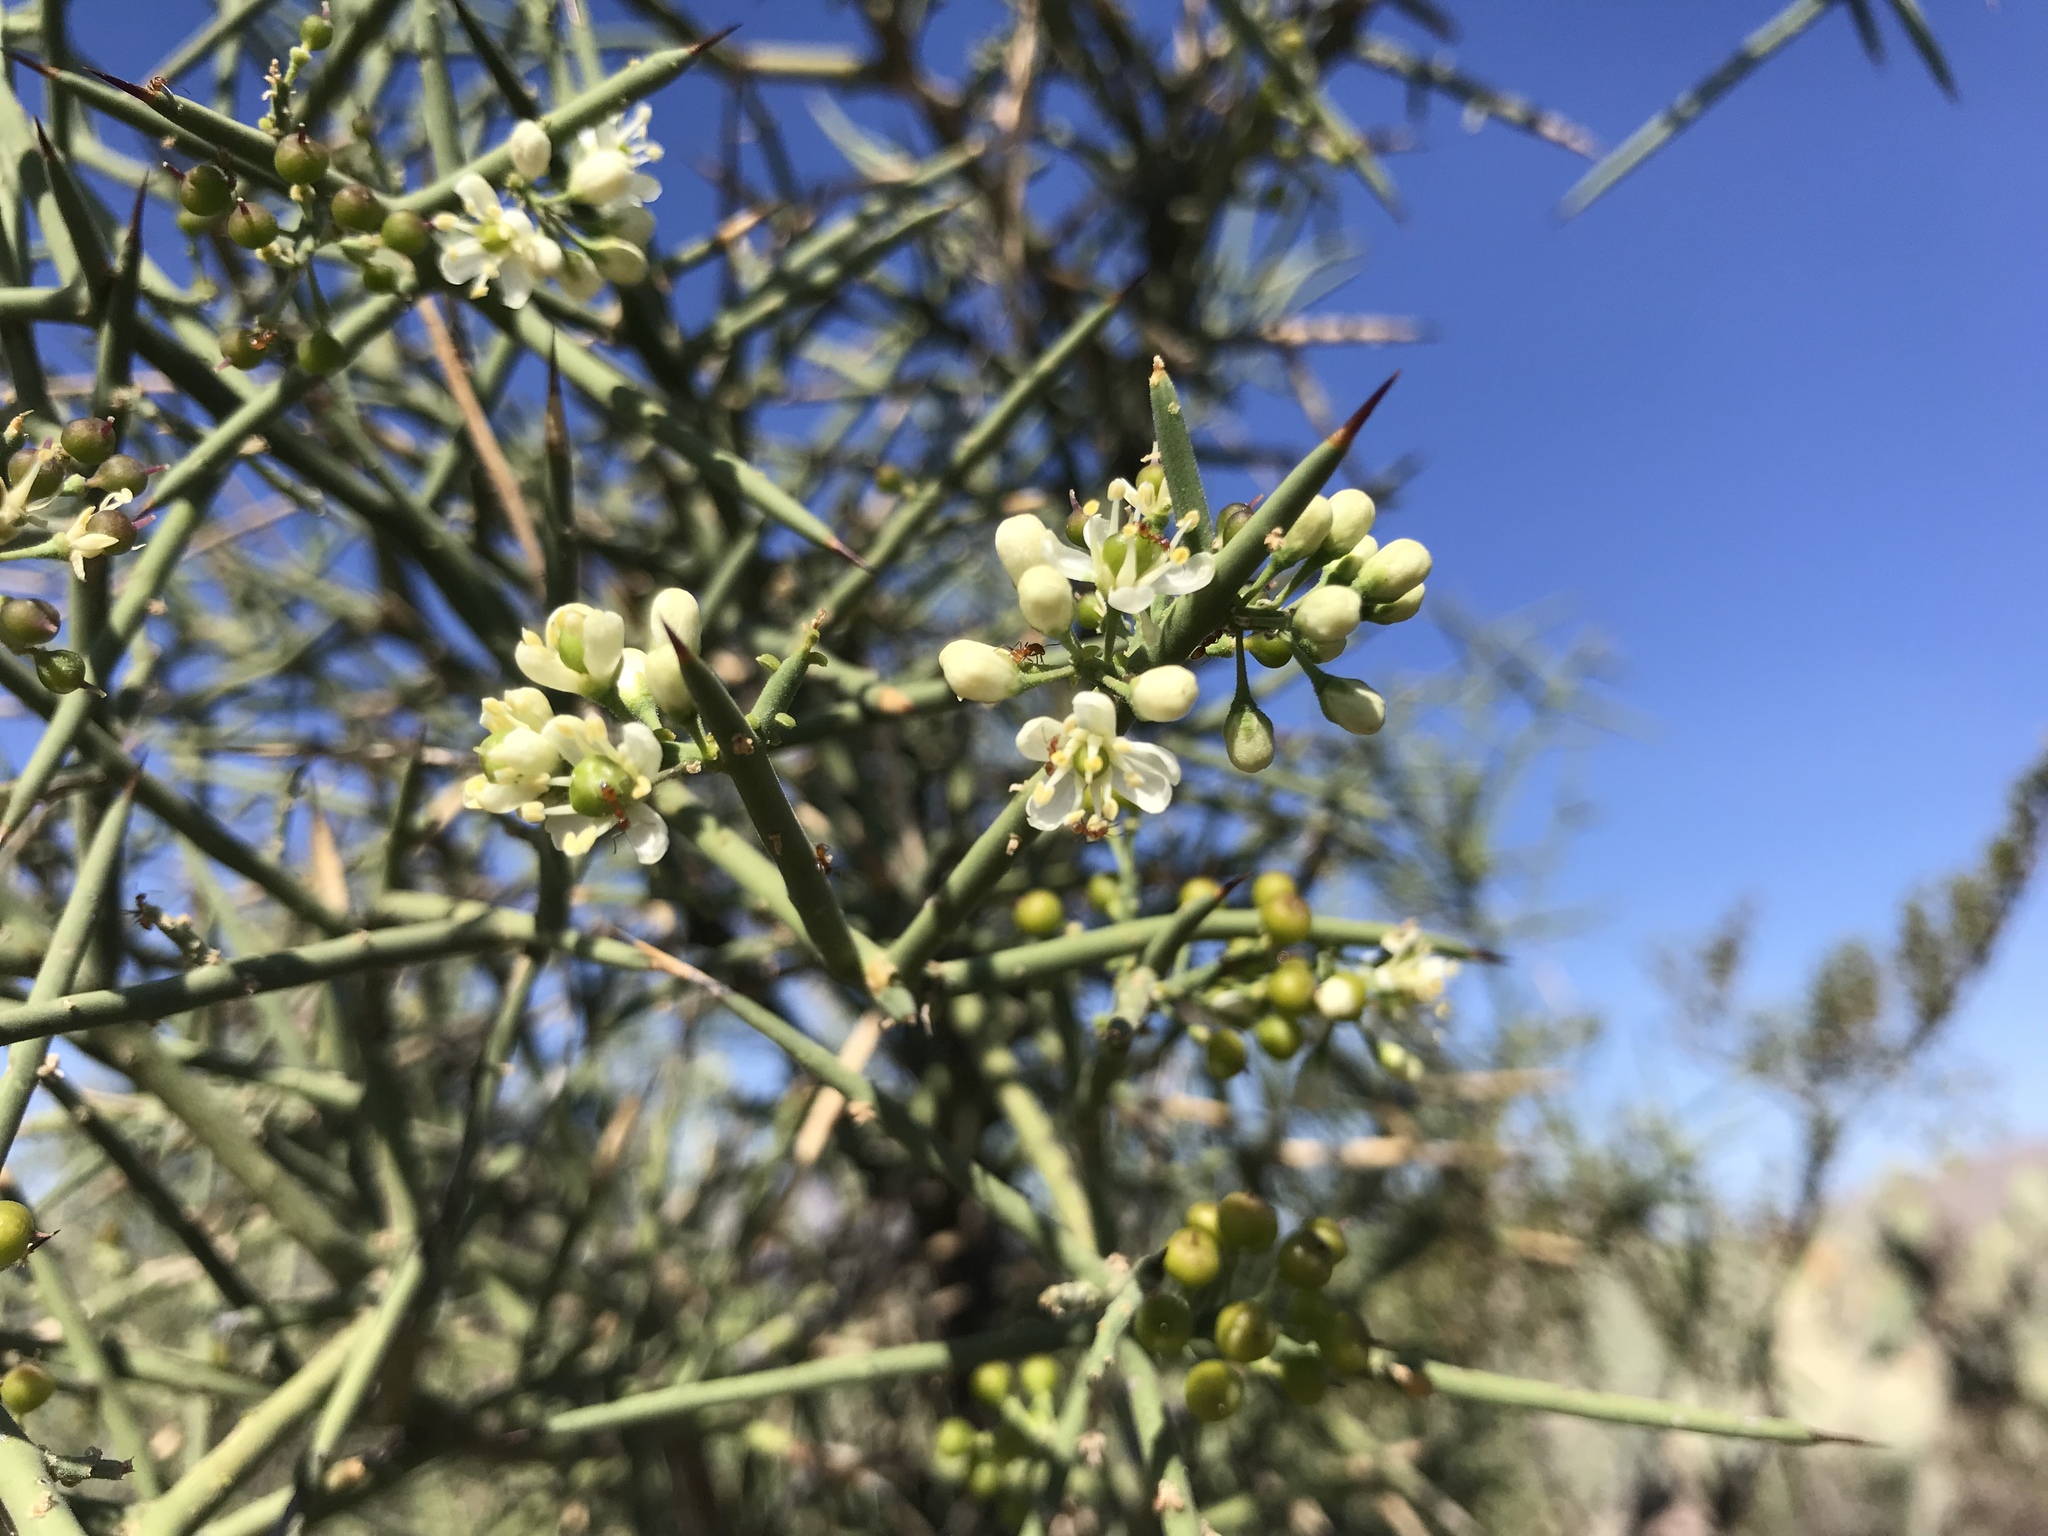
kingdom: Plantae
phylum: Tracheophyta
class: Magnoliopsida
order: Brassicales
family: Koeberliniaceae
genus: Koeberlinia
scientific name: Koeberlinia spinosa
